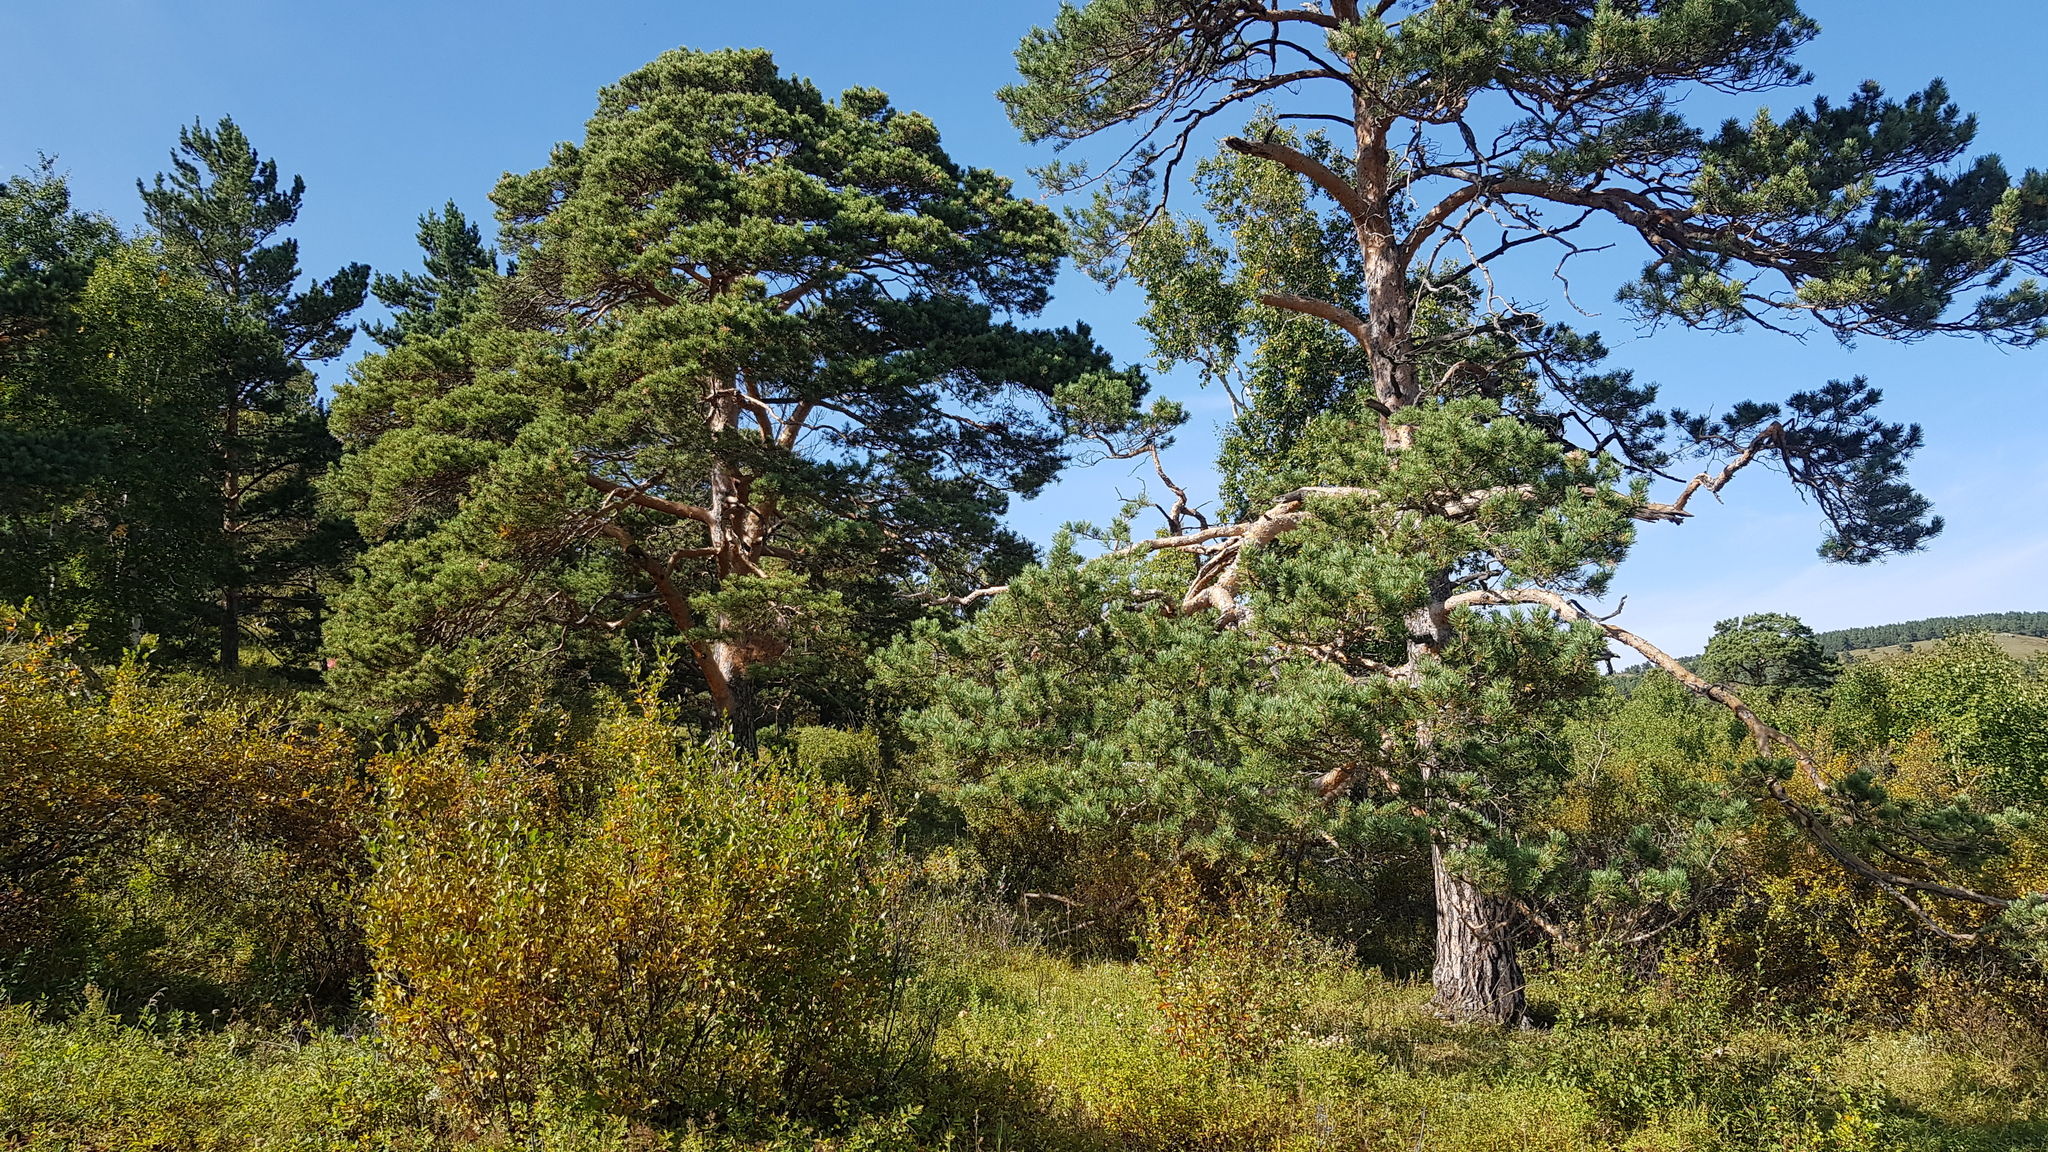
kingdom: Plantae
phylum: Tracheophyta
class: Pinopsida
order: Pinales
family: Pinaceae
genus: Pinus
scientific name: Pinus sylvestris
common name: Scots pine
